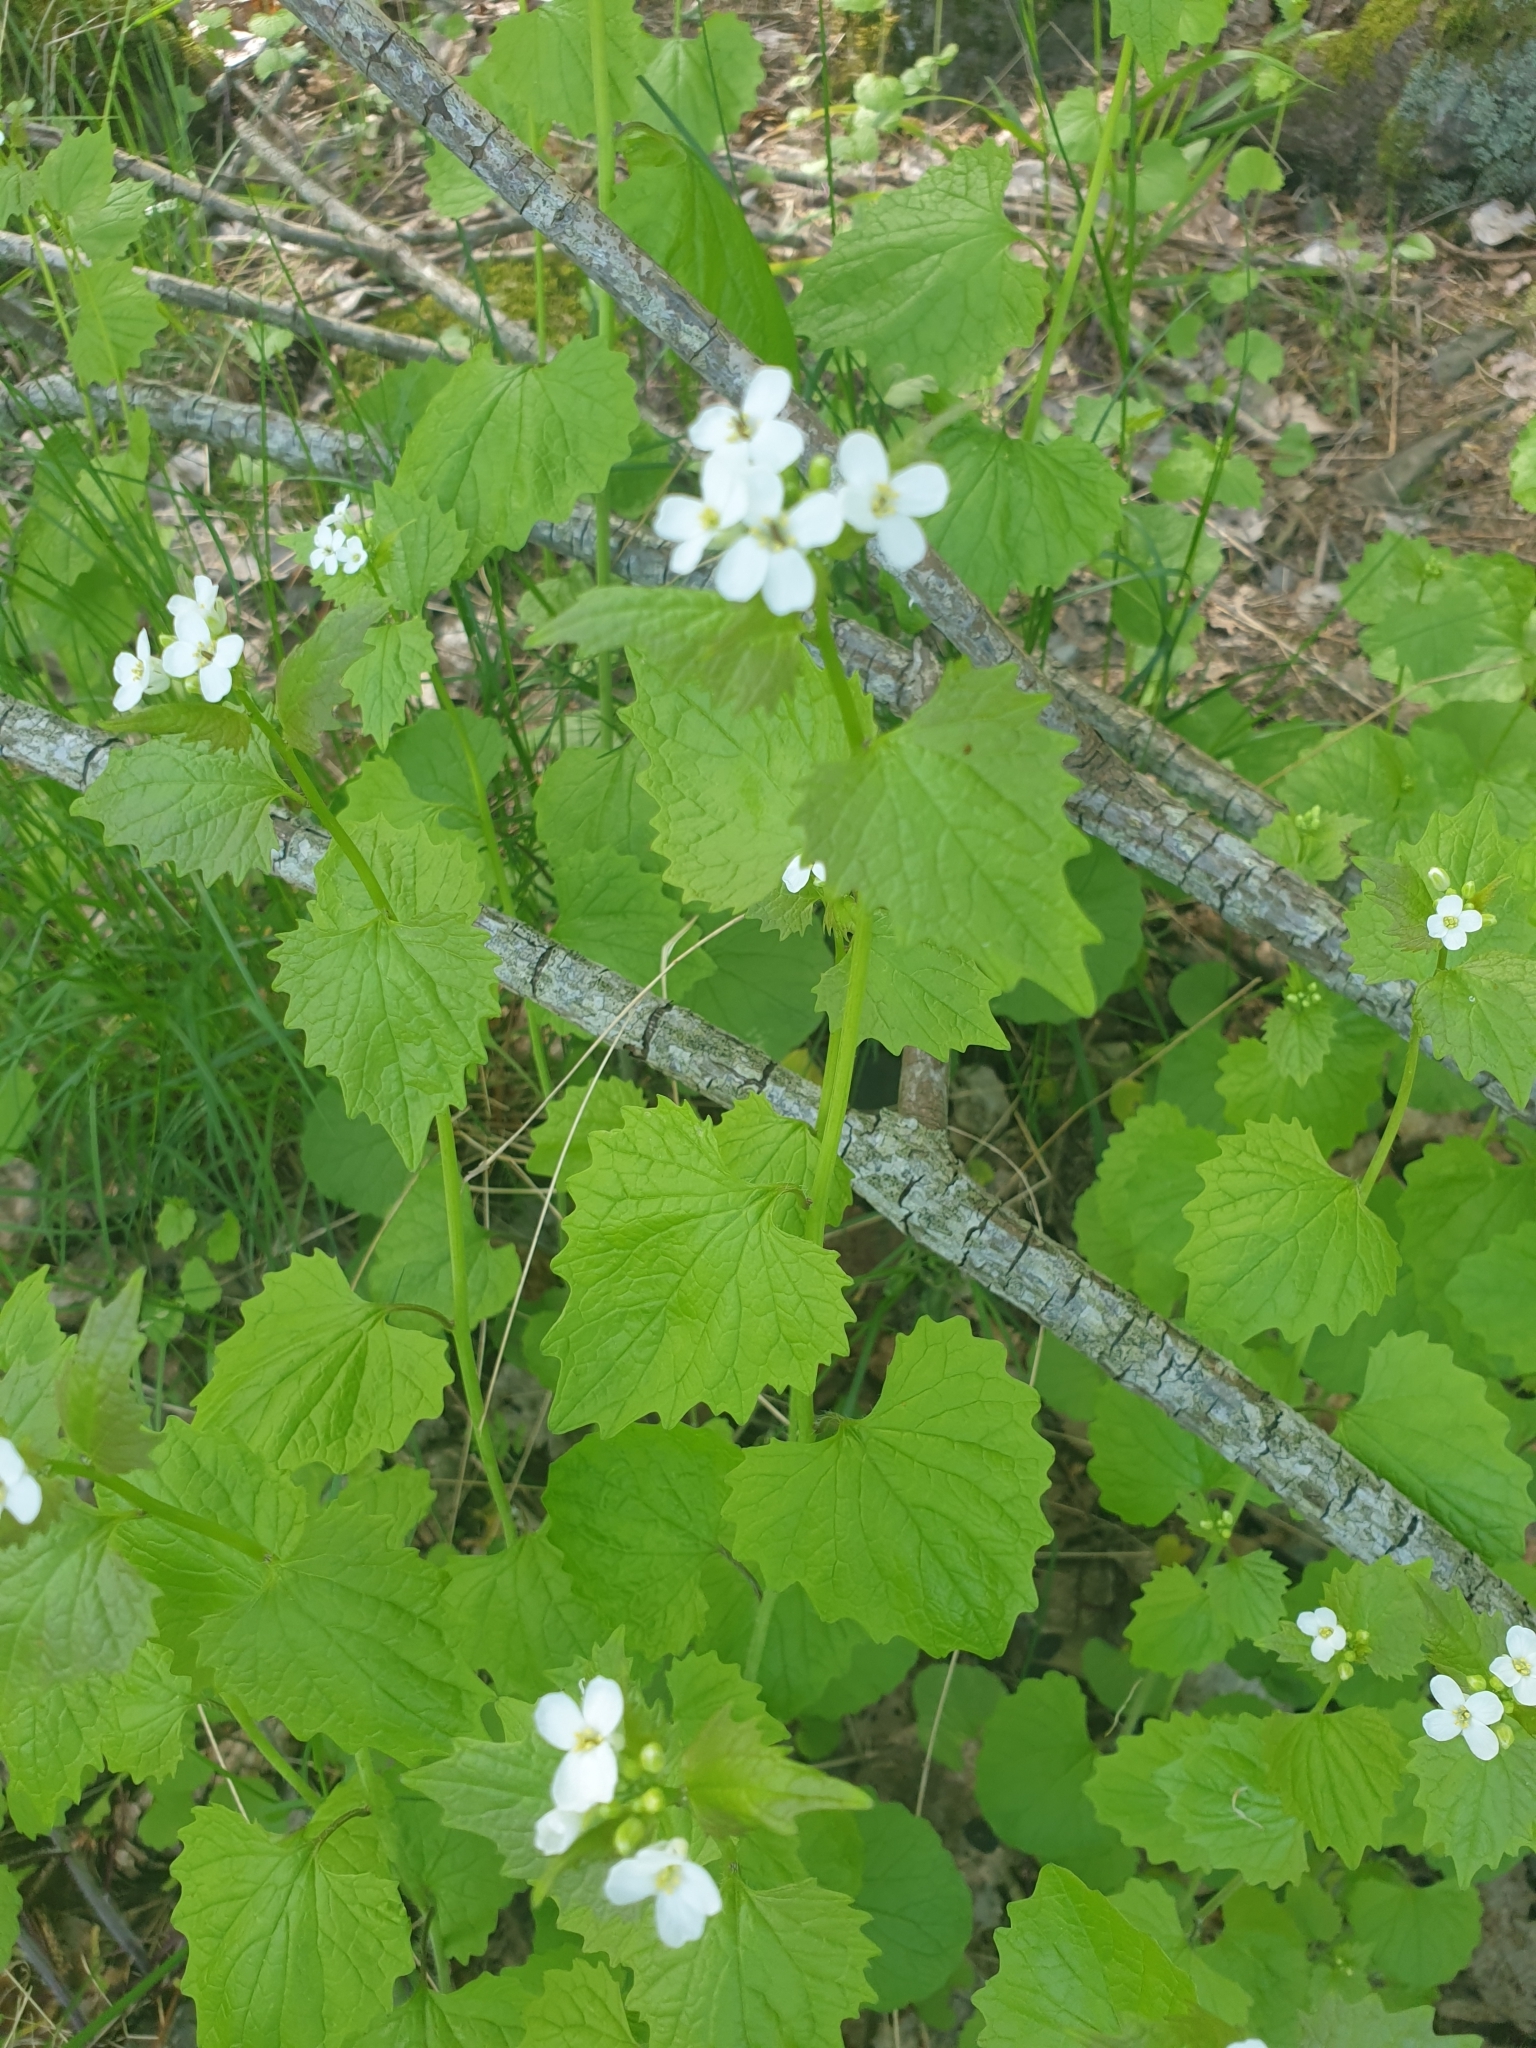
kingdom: Plantae
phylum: Tracheophyta
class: Magnoliopsida
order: Brassicales
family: Brassicaceae
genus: Alliaria
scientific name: Alliaria petiolata
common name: Garlic mustard
